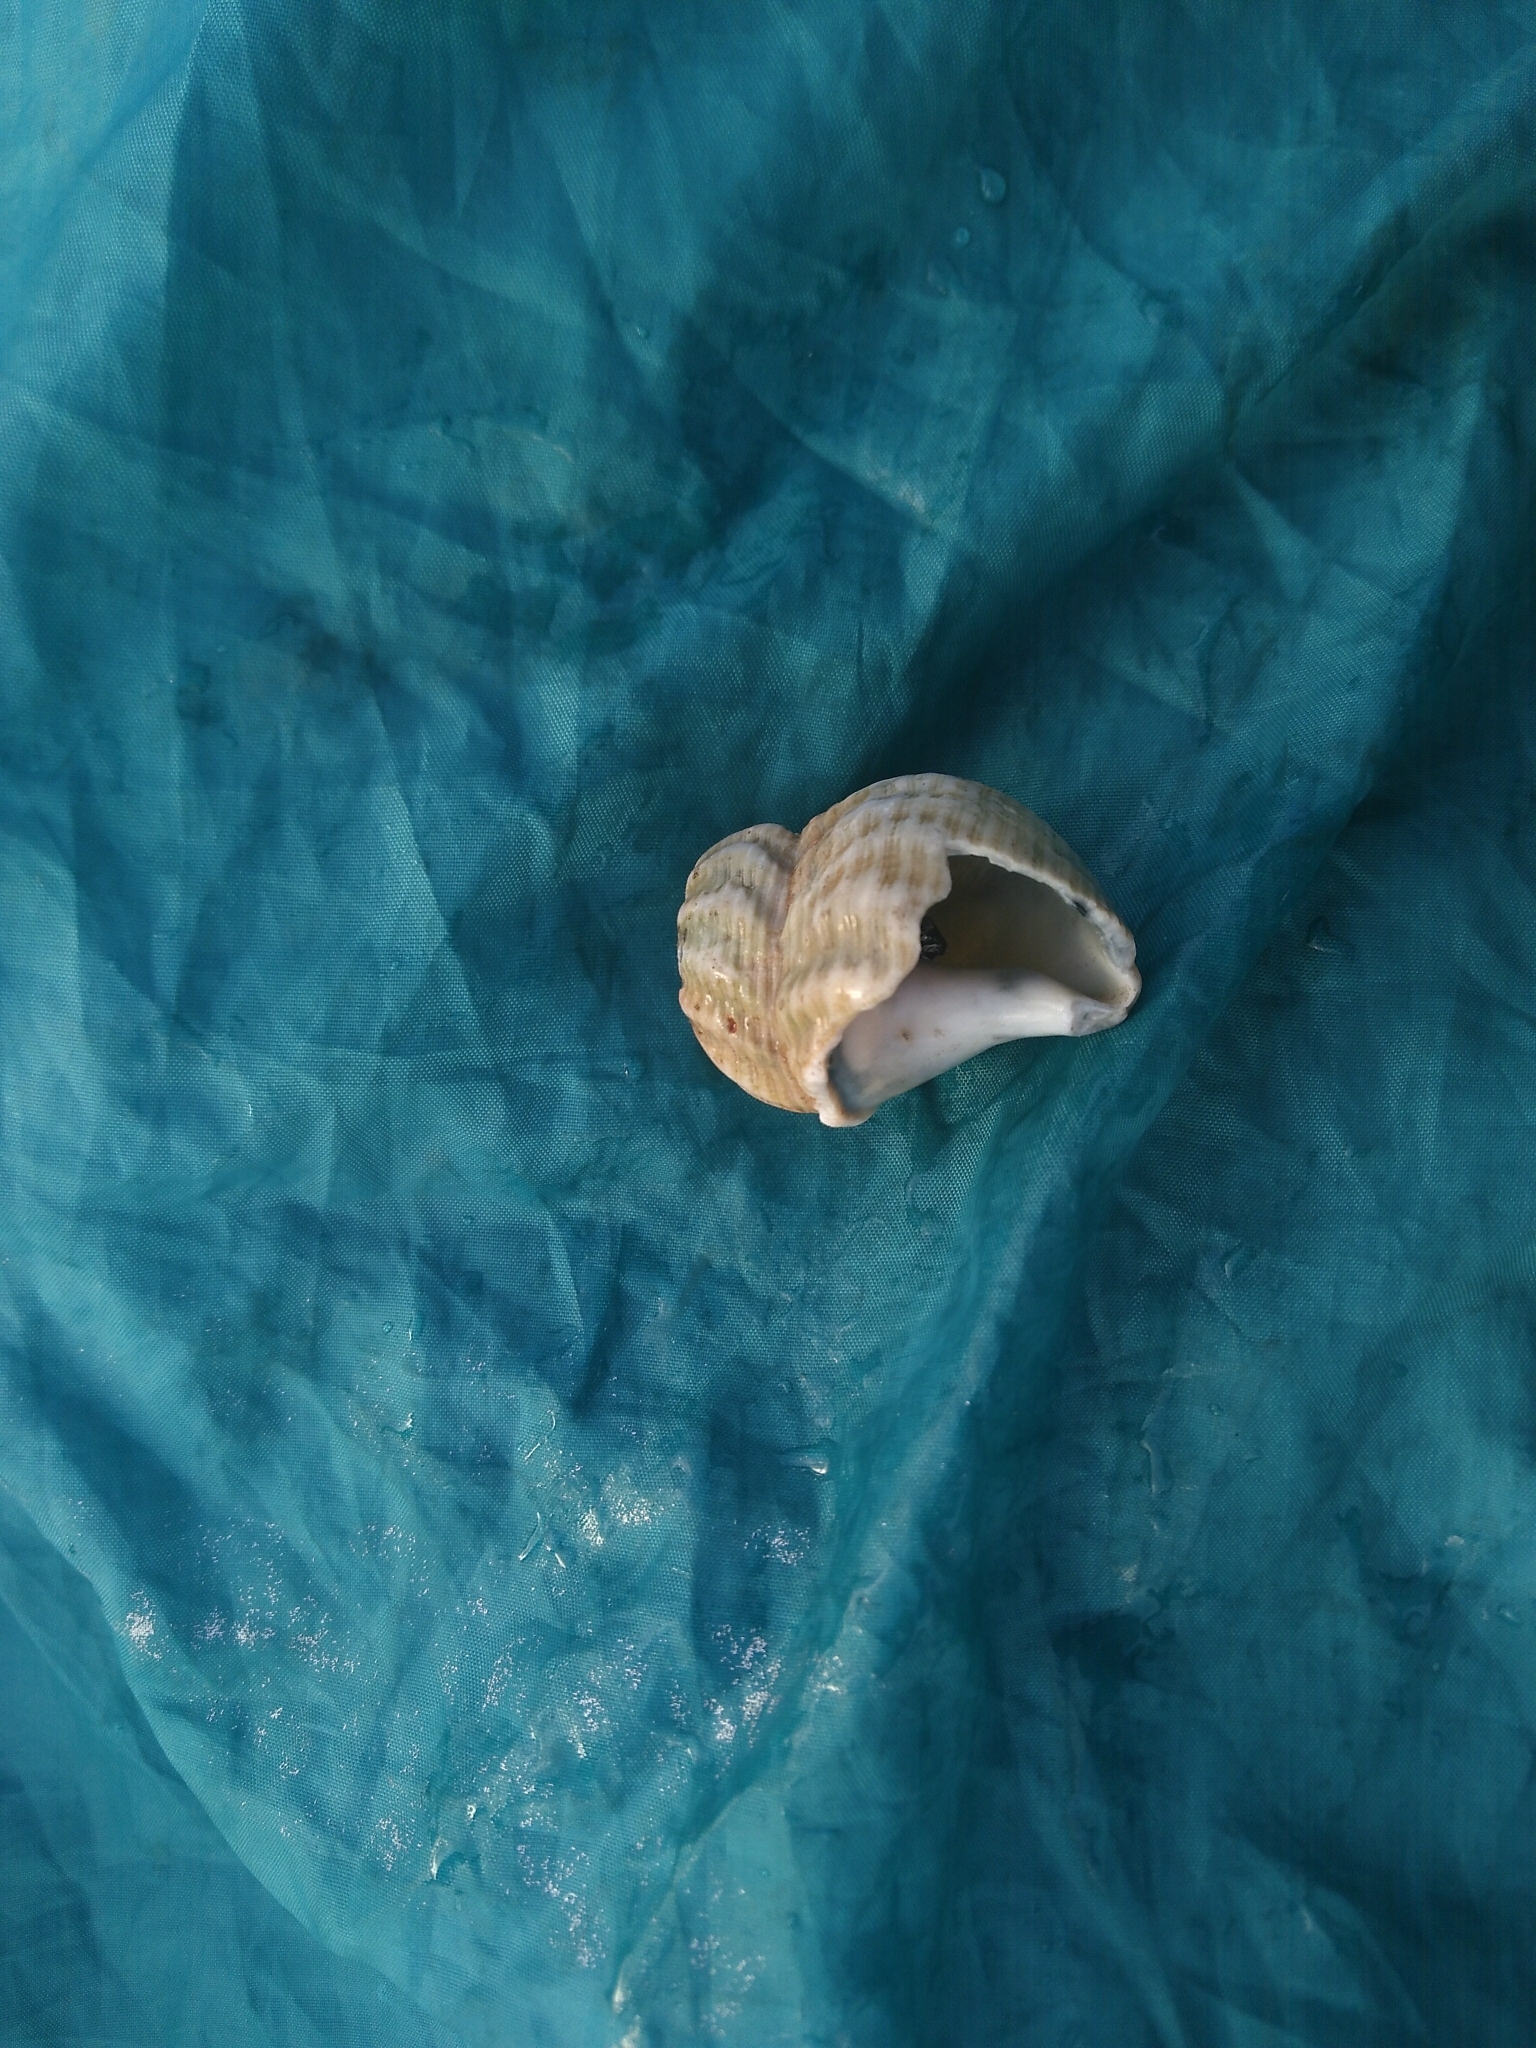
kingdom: Animalia
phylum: Mollusca
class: Gastropoda
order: Neogastropoda
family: Buccinidae
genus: Buccinum
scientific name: Buccinum undatum
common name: Common whelk
